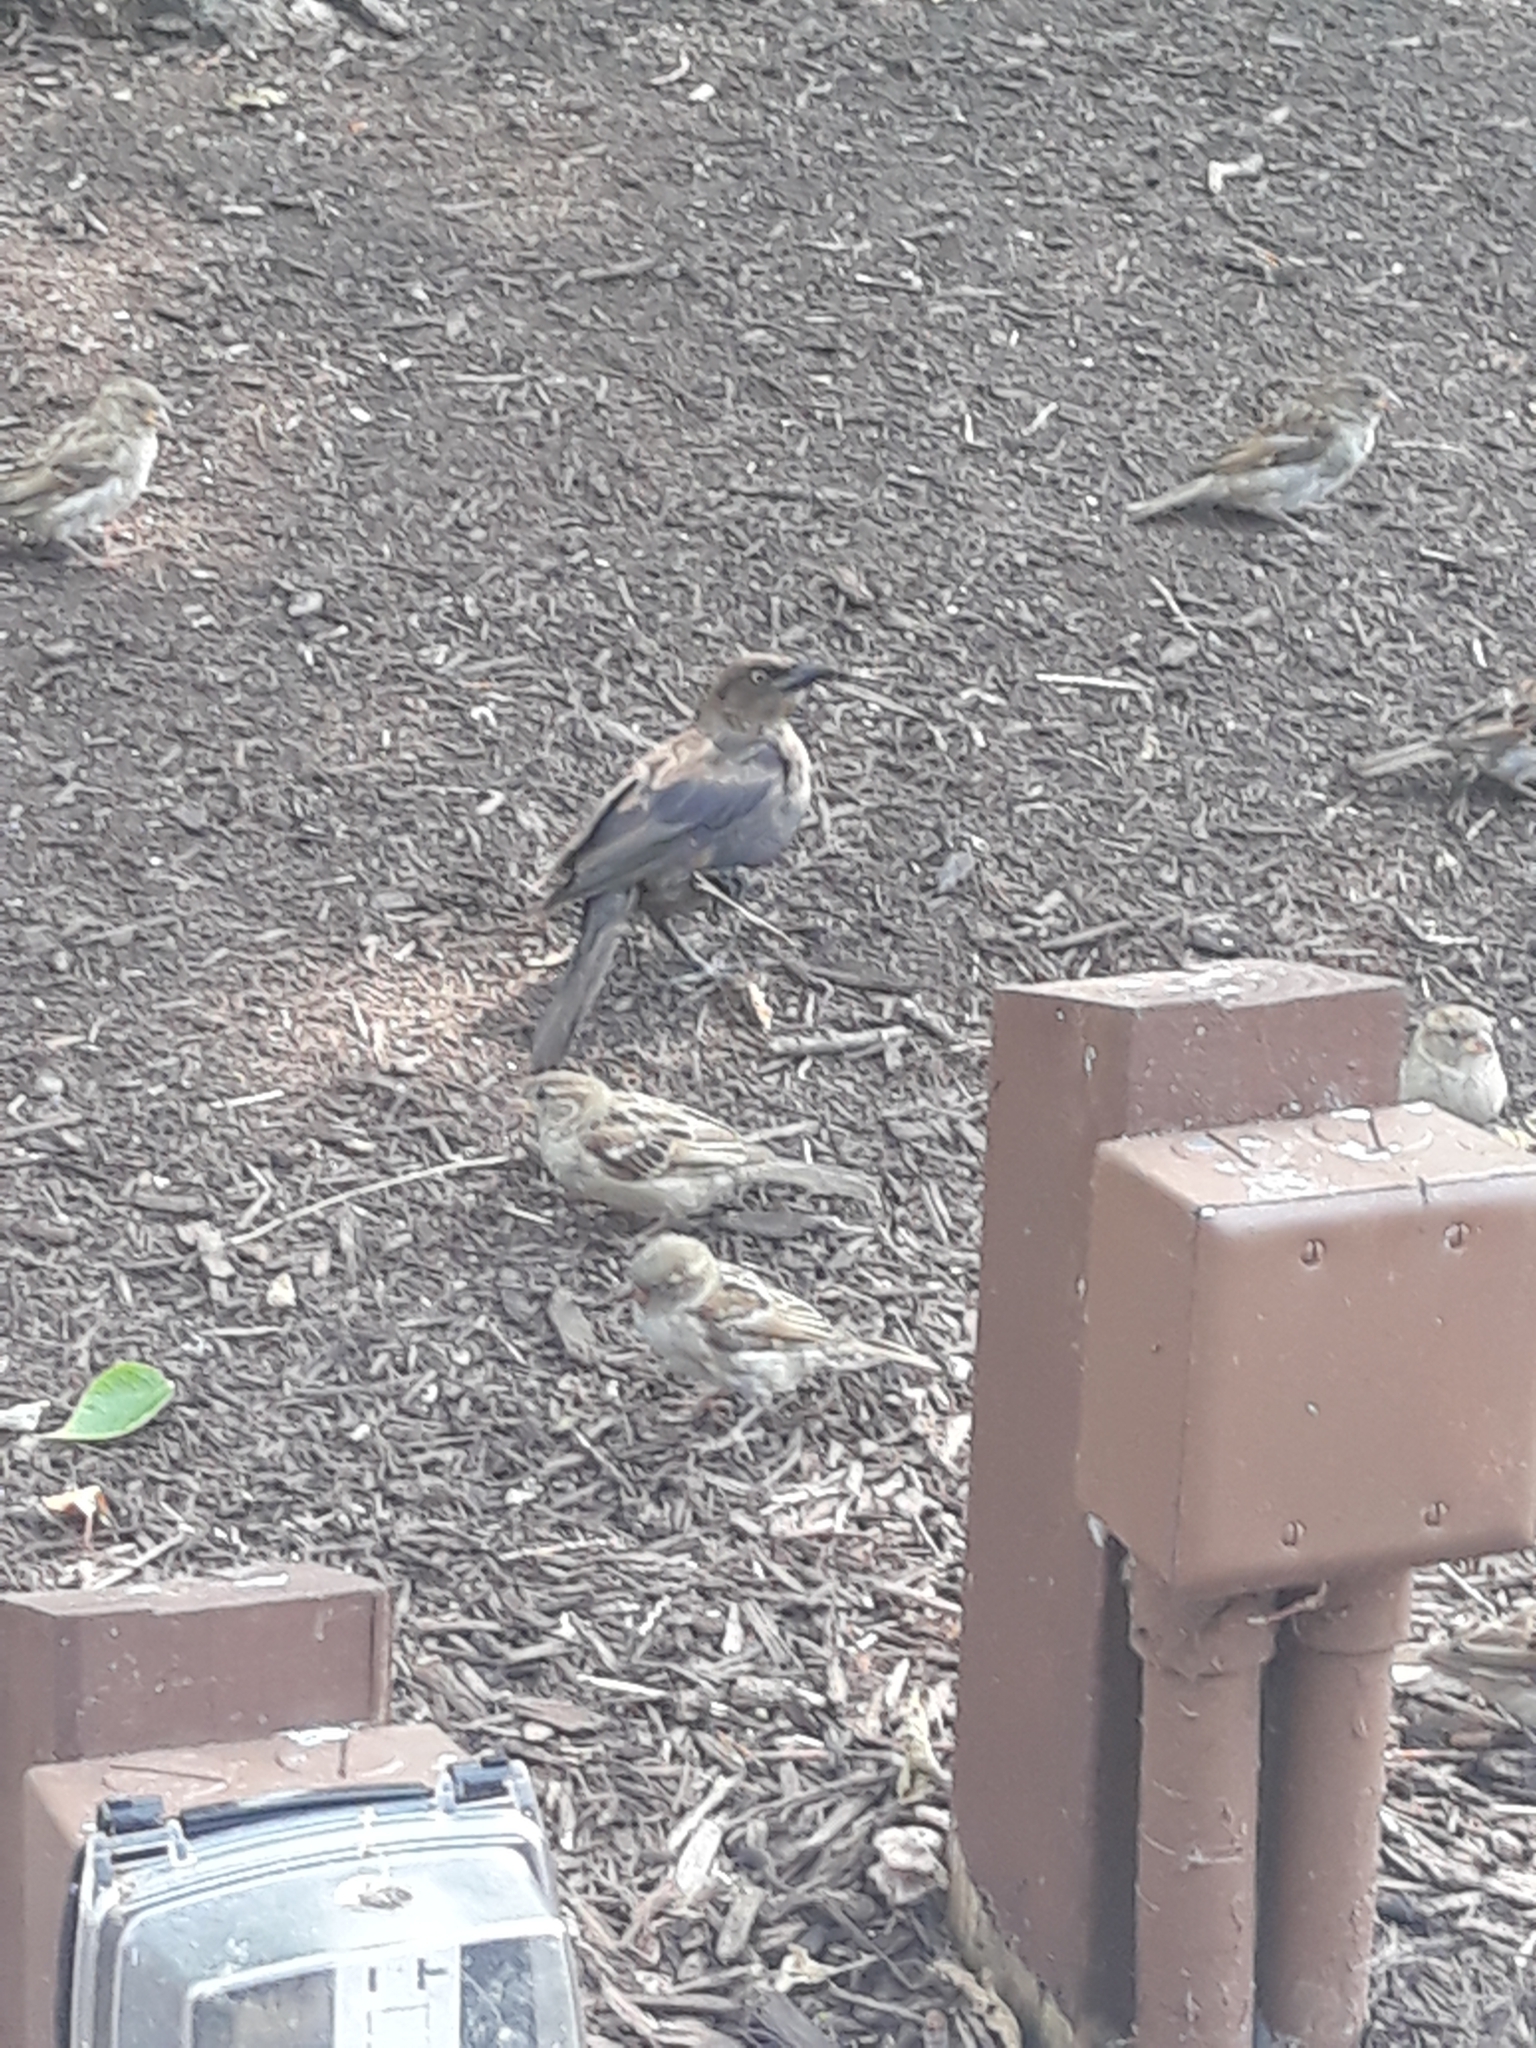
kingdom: Animalia
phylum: Chordata
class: Aves
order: Passeriformes
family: Icteridae
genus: Quiscalus
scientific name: Quiscalus quiscula
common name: Common grackle
